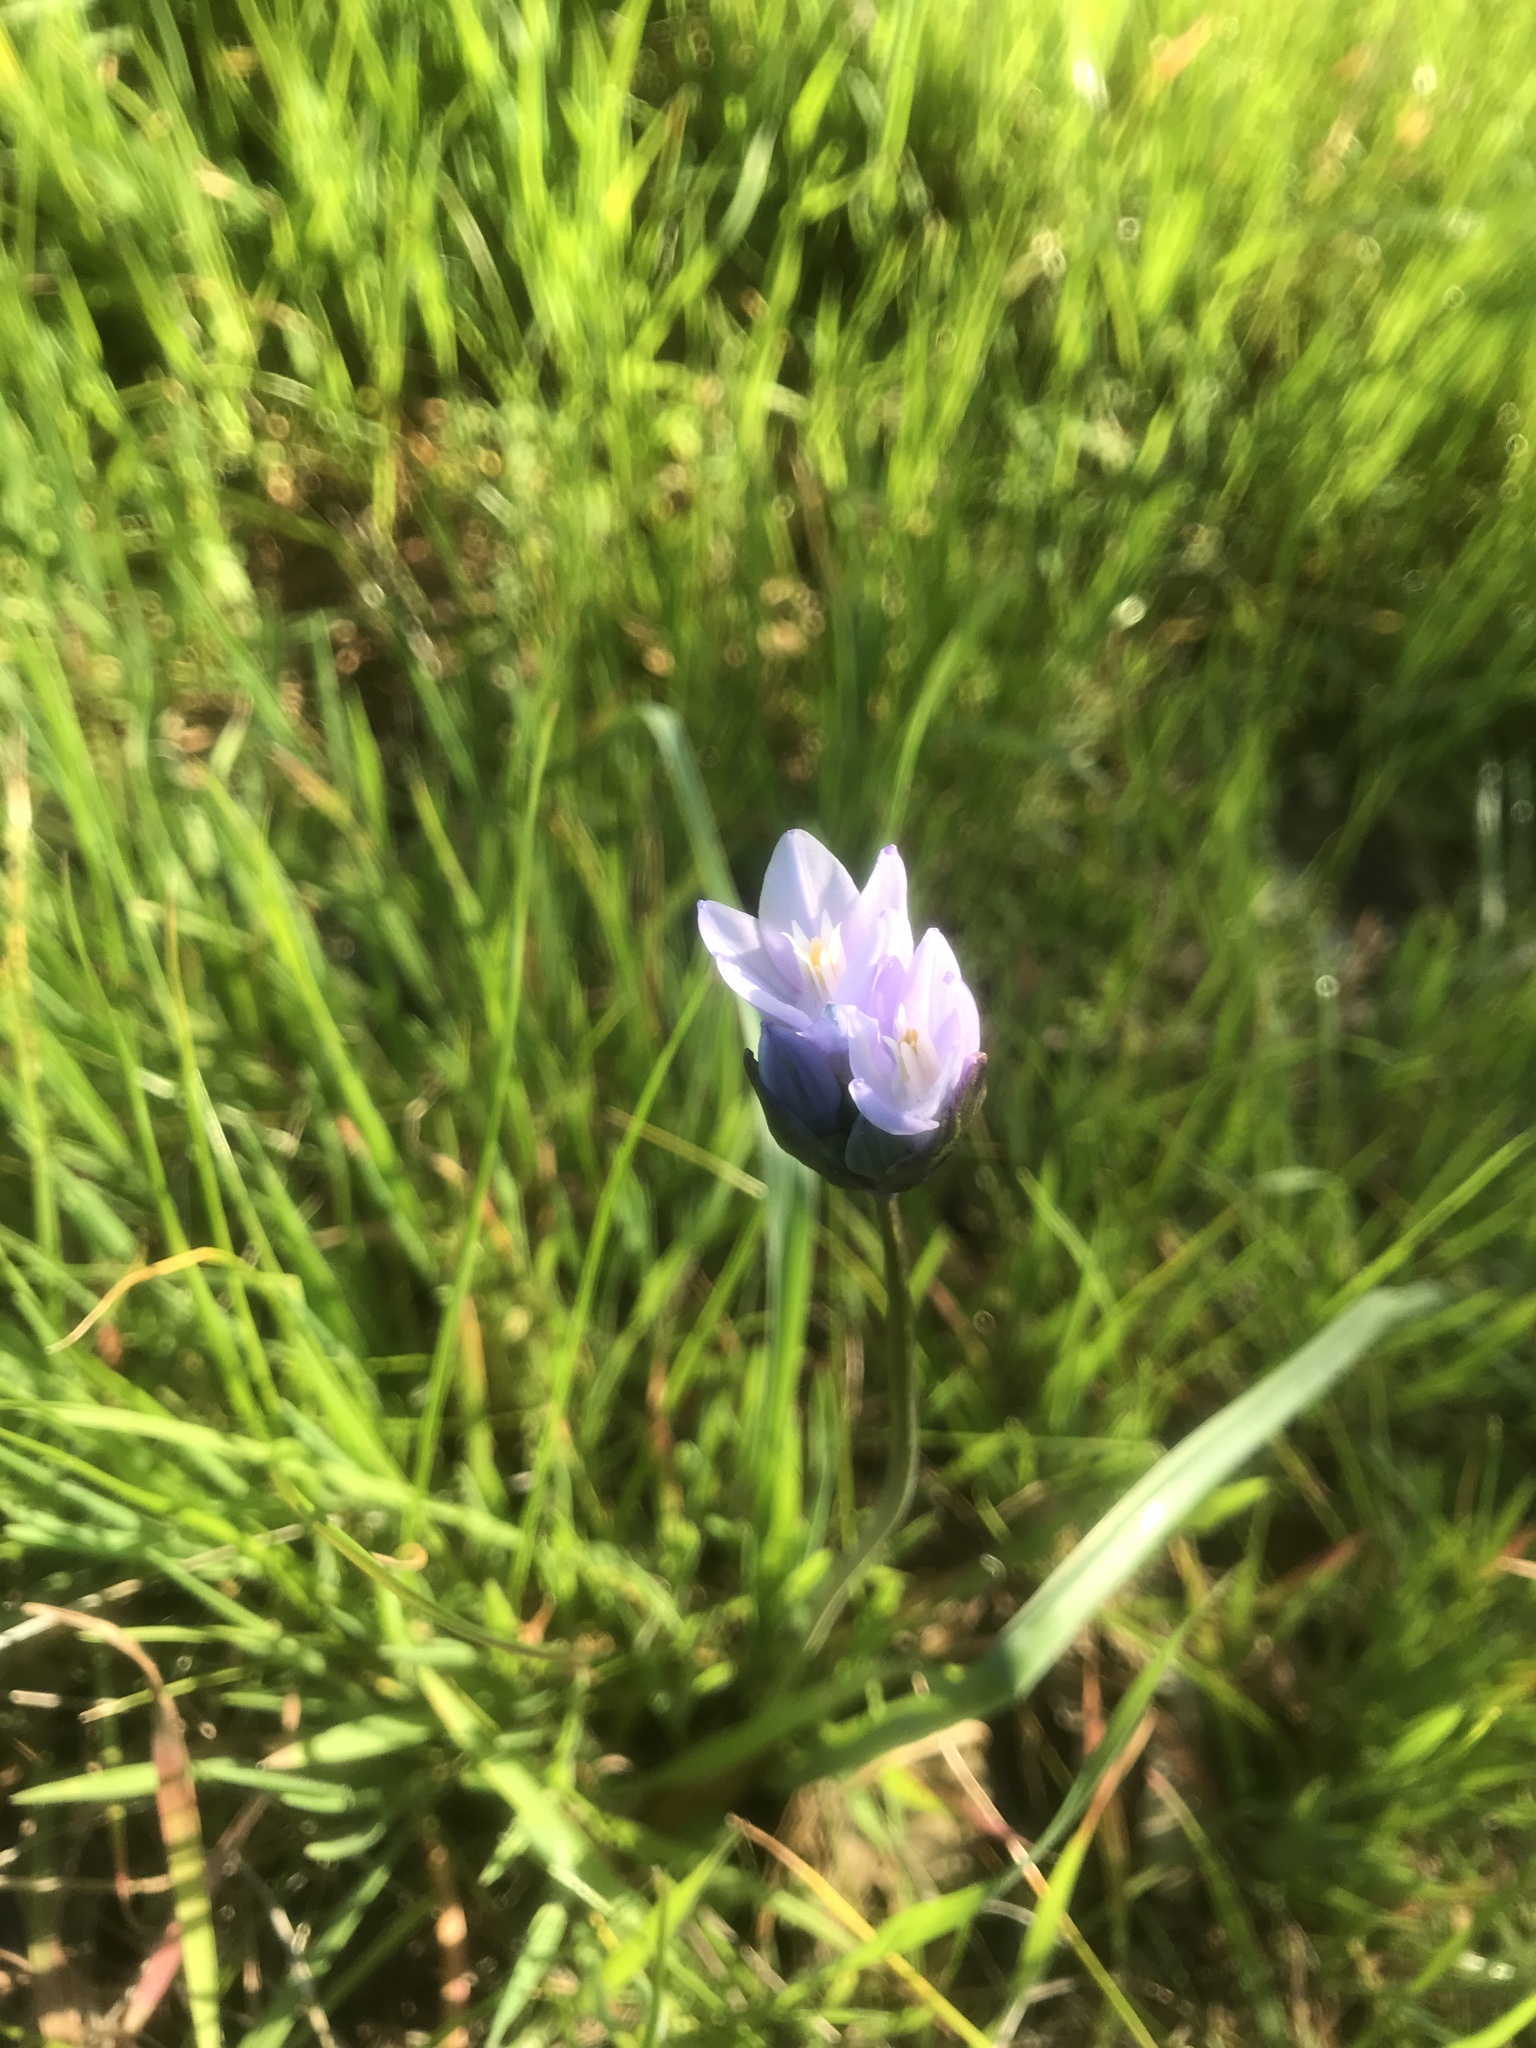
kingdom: Plantae
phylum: Tracheophyta
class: Liliopsida
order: Asparagales
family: Asparagaceae
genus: Dipterostemon
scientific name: Dipterostemon capitatus
